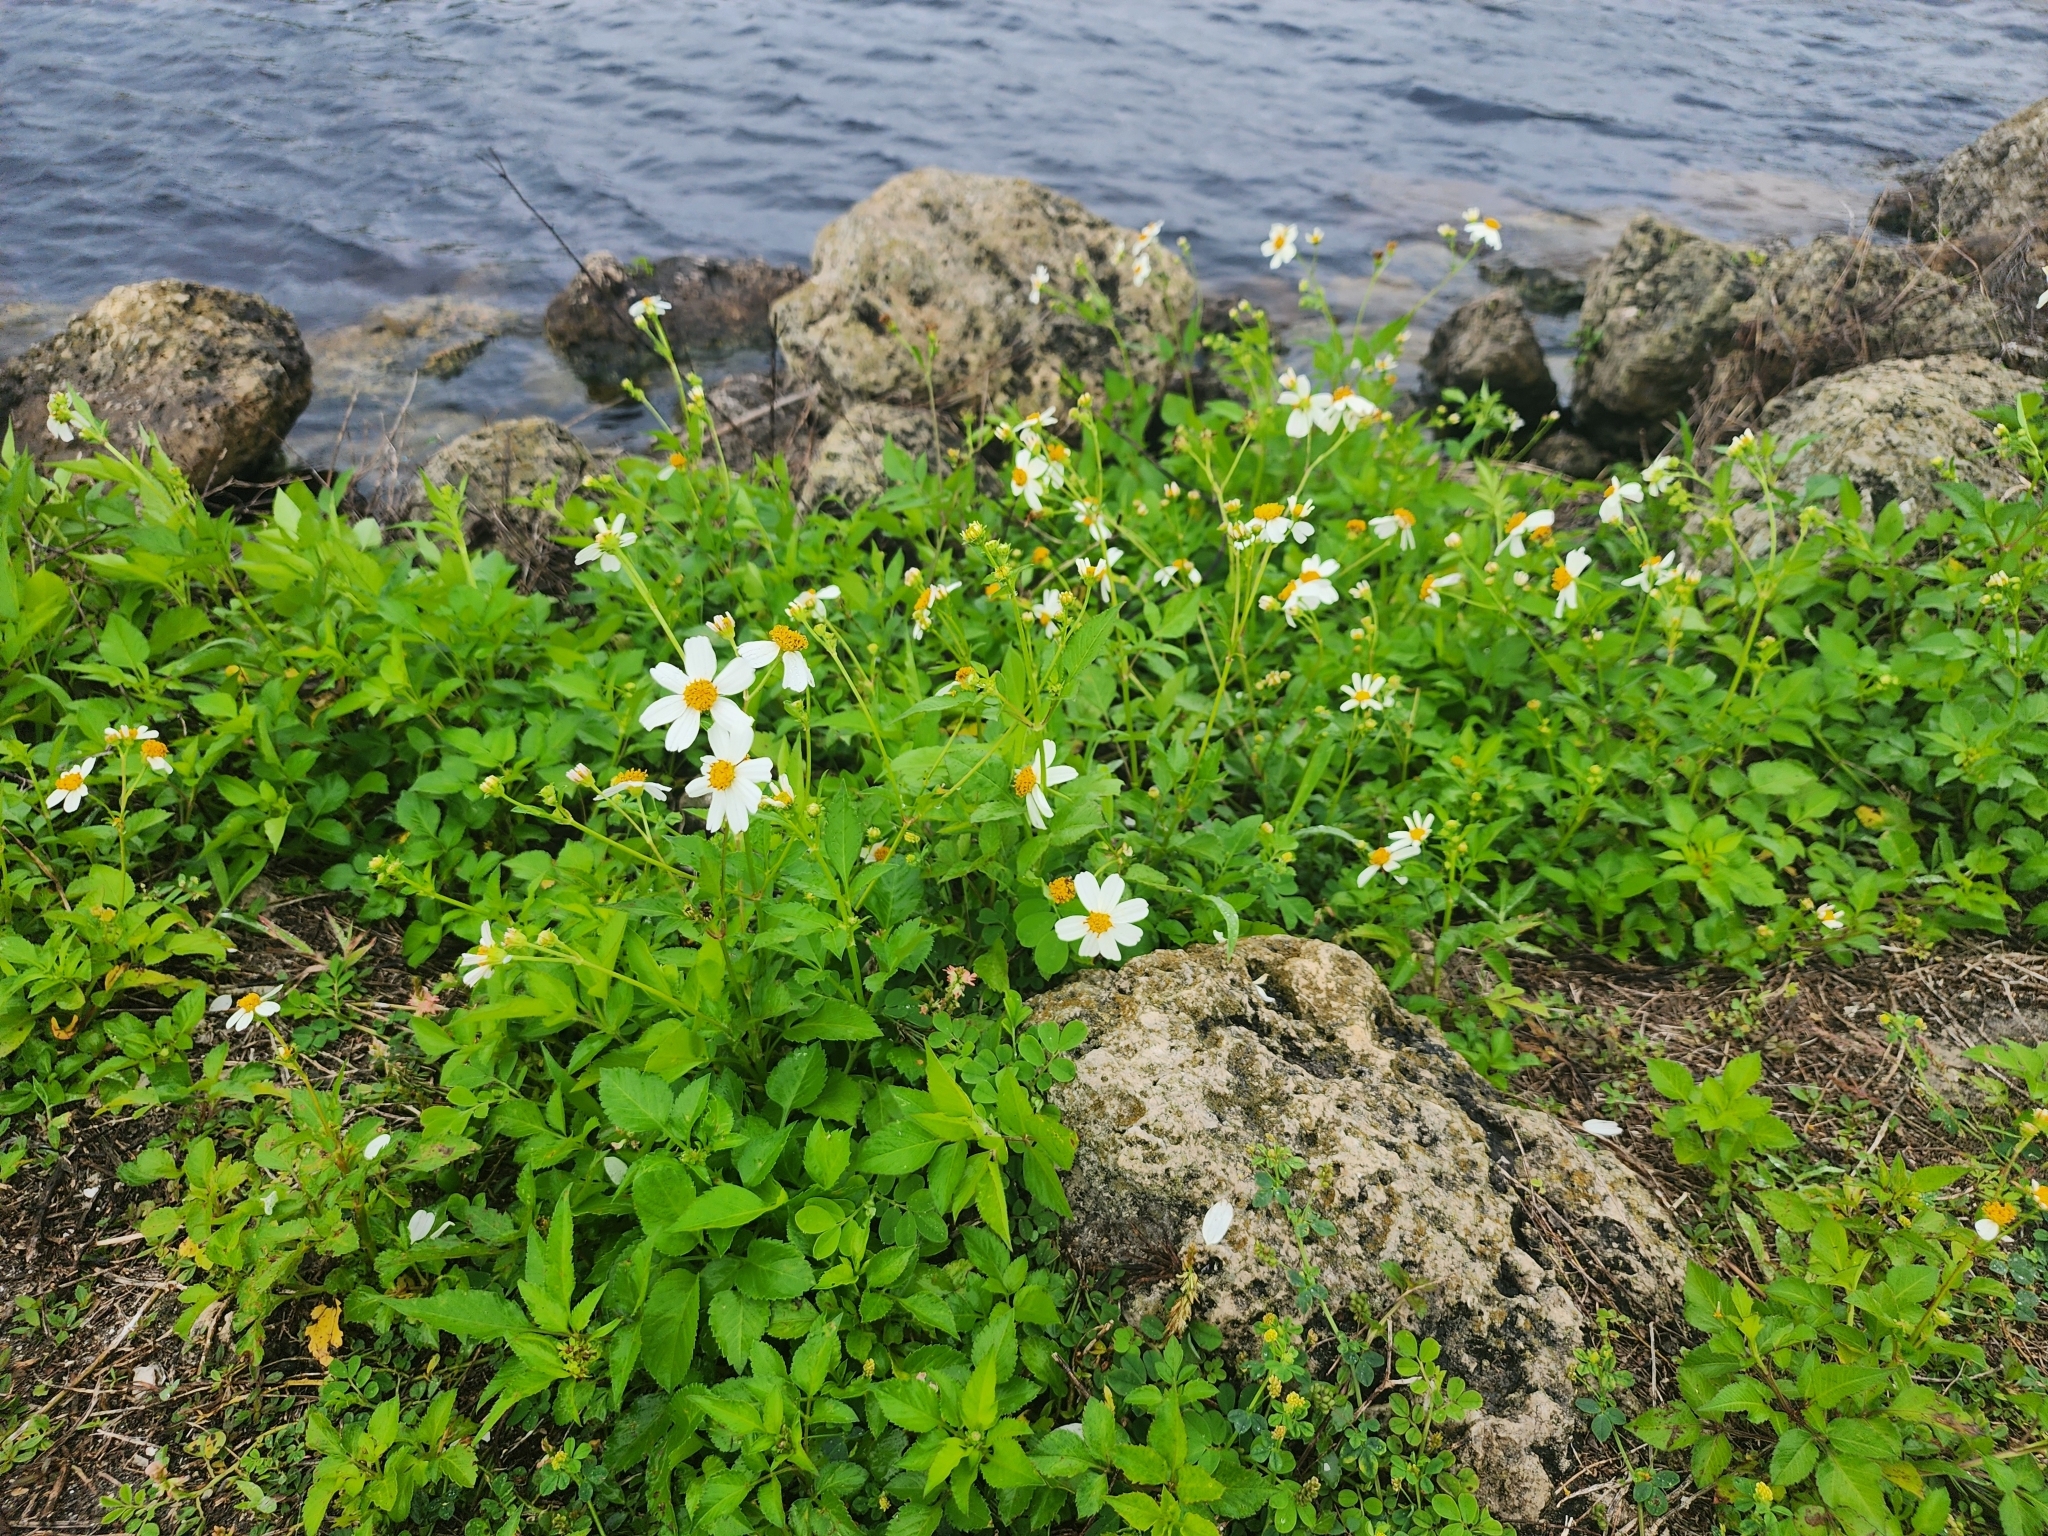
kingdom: Plantae
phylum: Tracheophyta
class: Magnoliopsida
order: Asterales
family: Asteraceae
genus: Bidens
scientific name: Bidens alba
